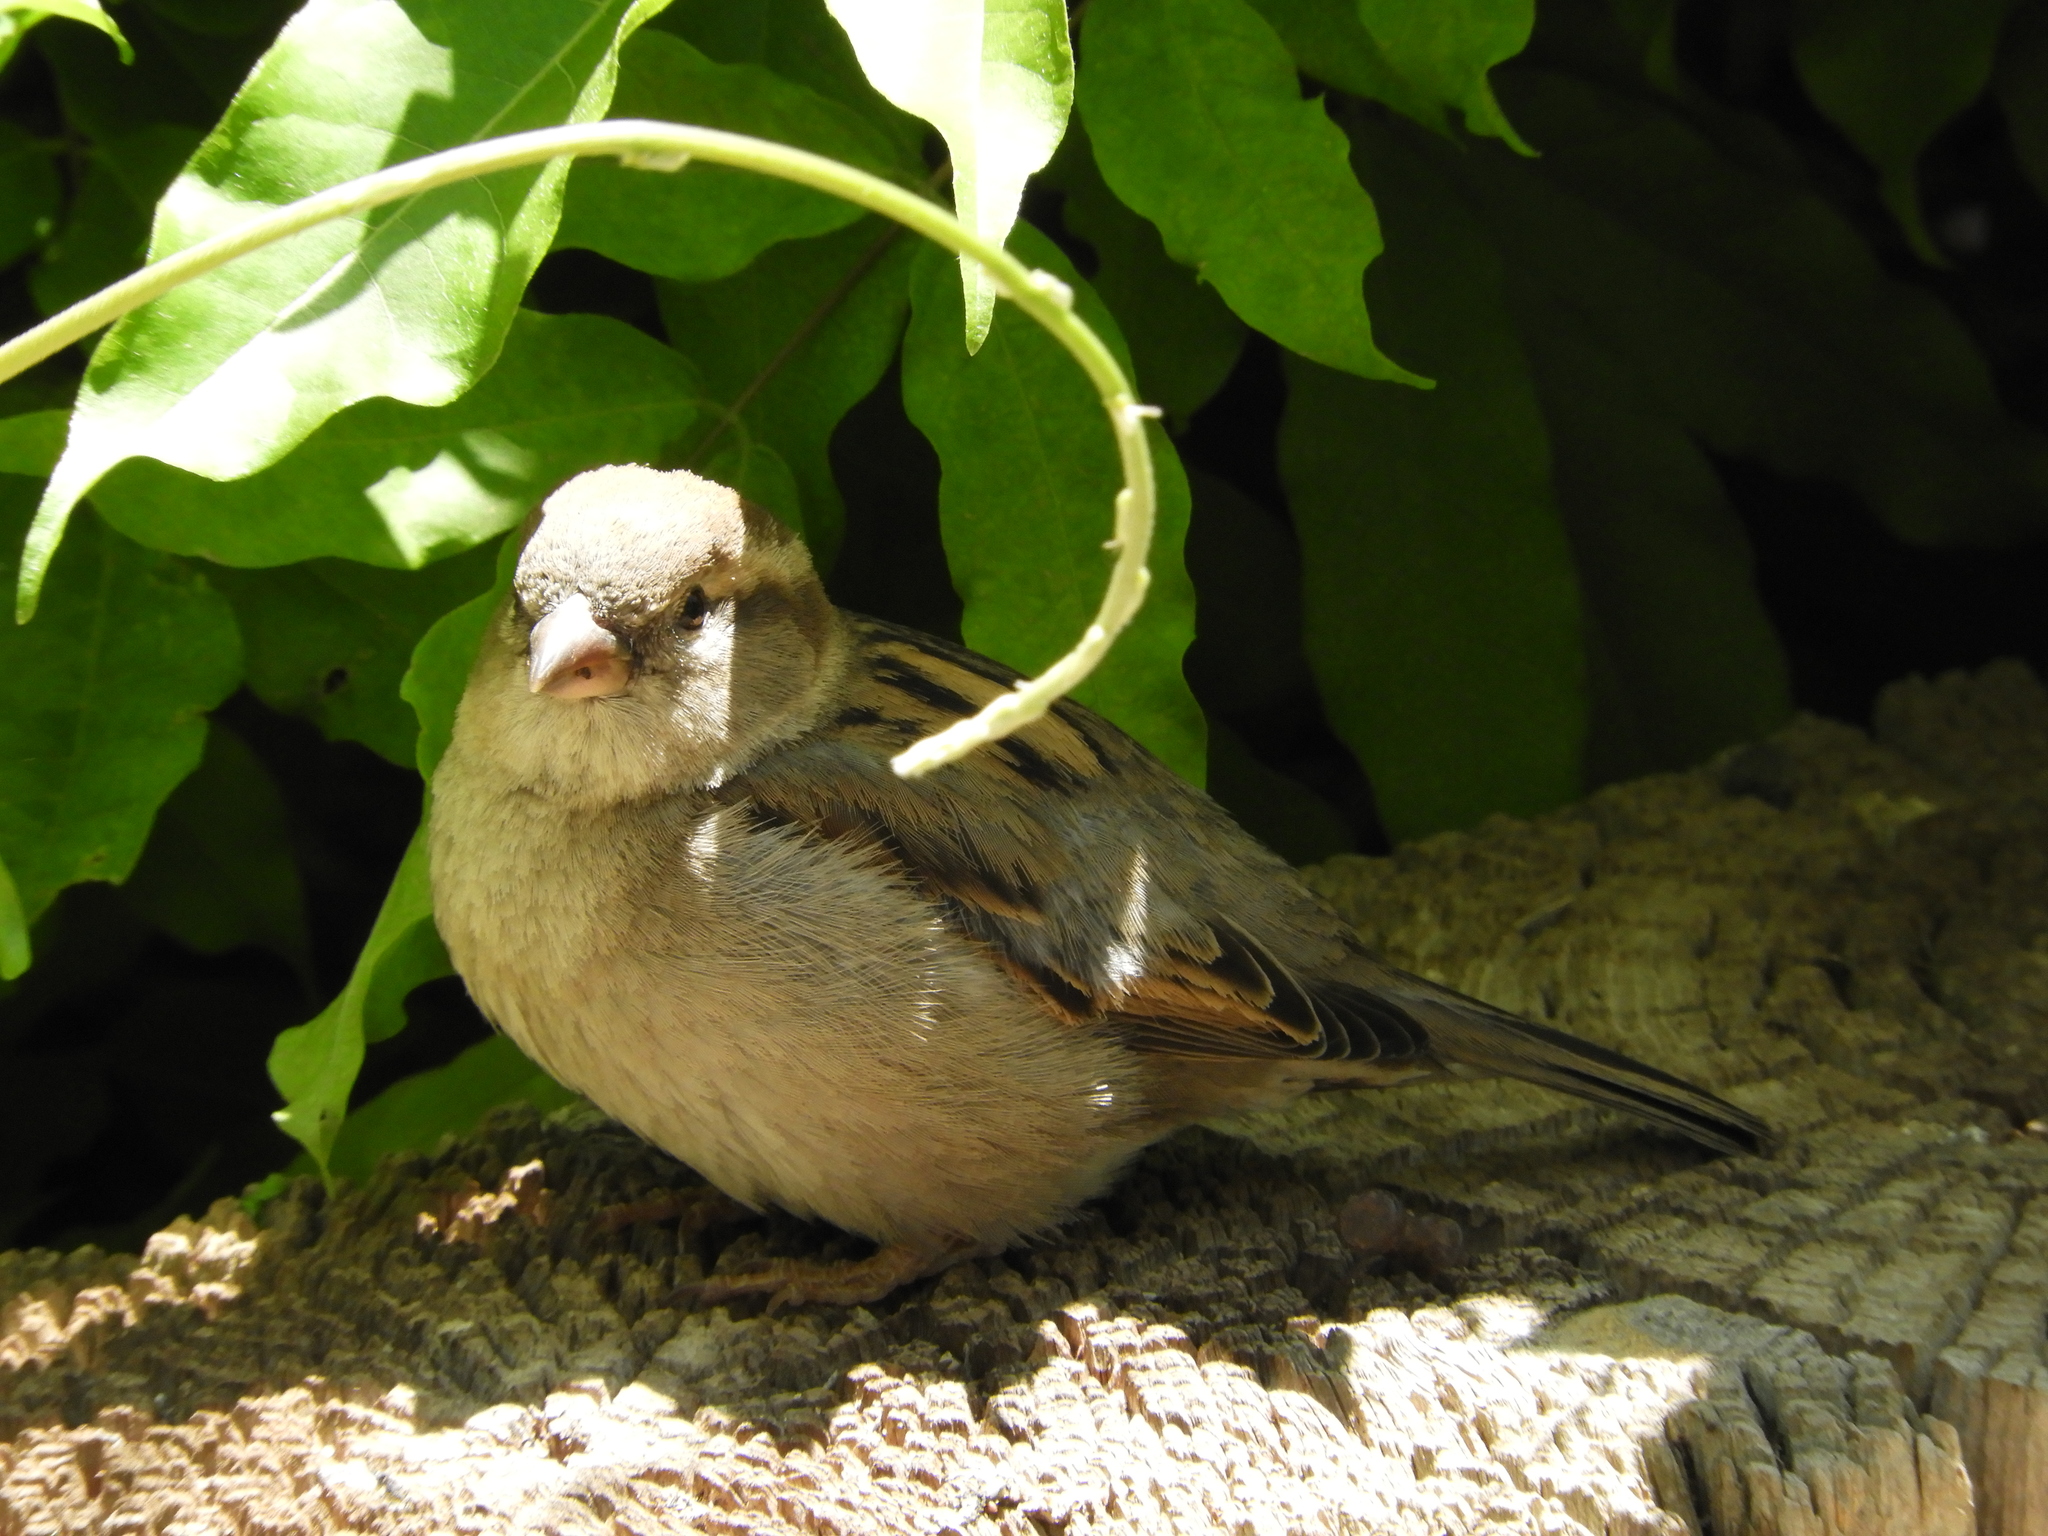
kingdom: Animalia
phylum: Chordata
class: Aves
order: Passeriformes
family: Passeridae
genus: Passer
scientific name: Passer domesticus
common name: House sparrow
